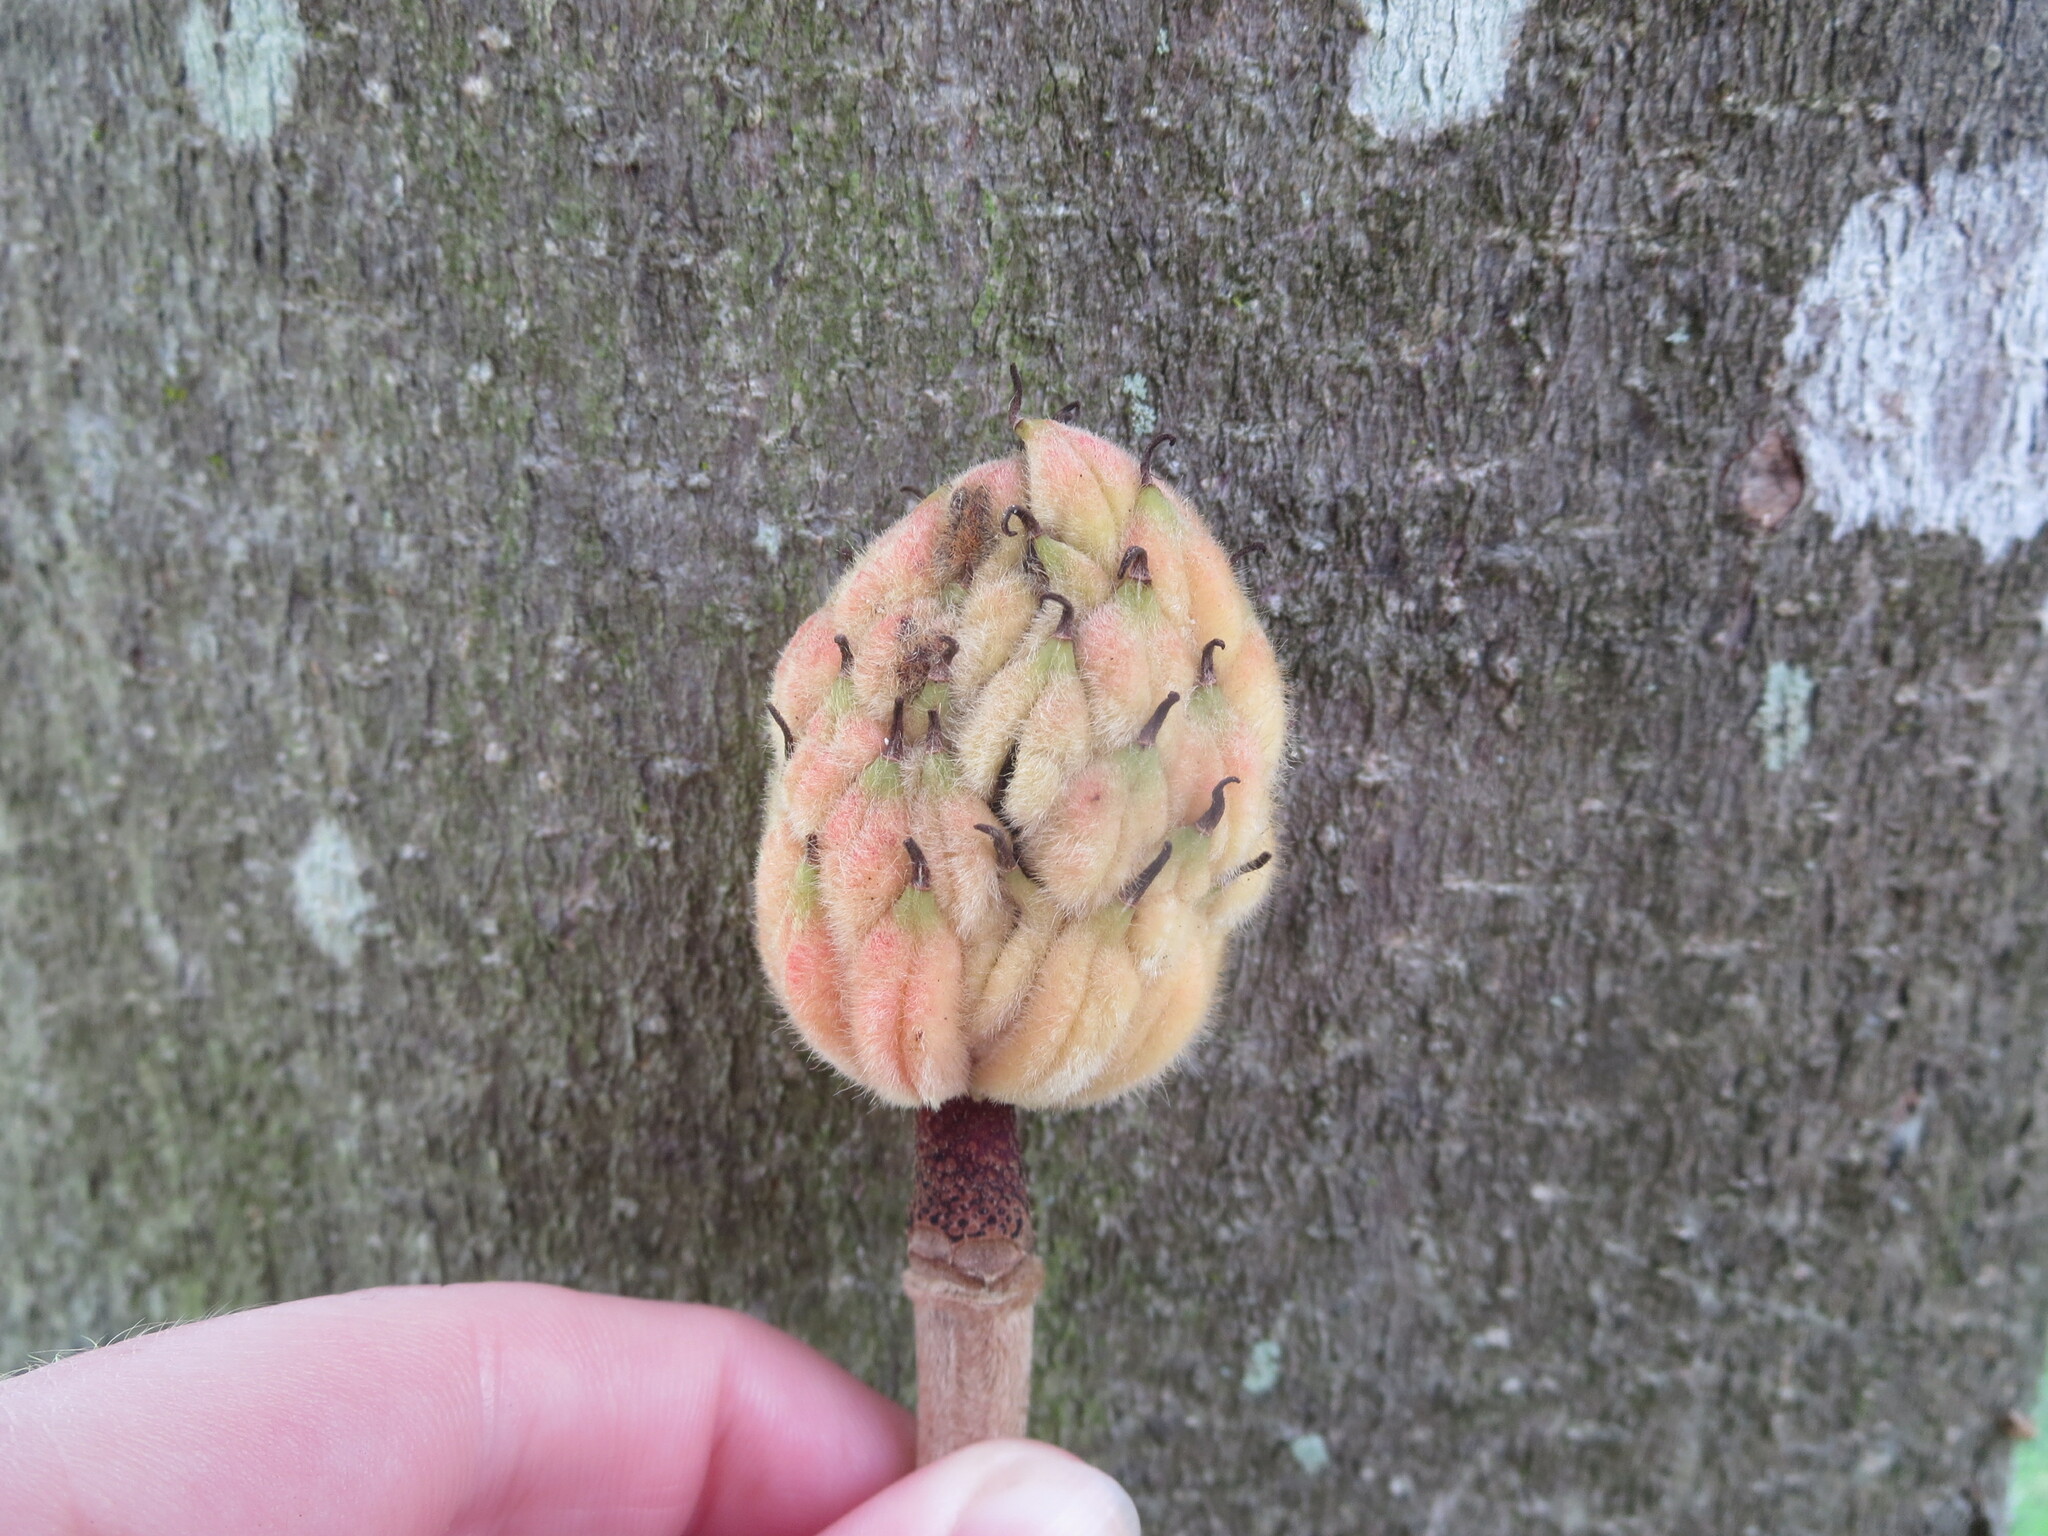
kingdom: Plantae
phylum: Tracheophyta
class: Magnoliopsida
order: Magnoliales
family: Magnoliaceae
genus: Magnolia
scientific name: Magnolia grandiflora
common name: Southern magnolia
